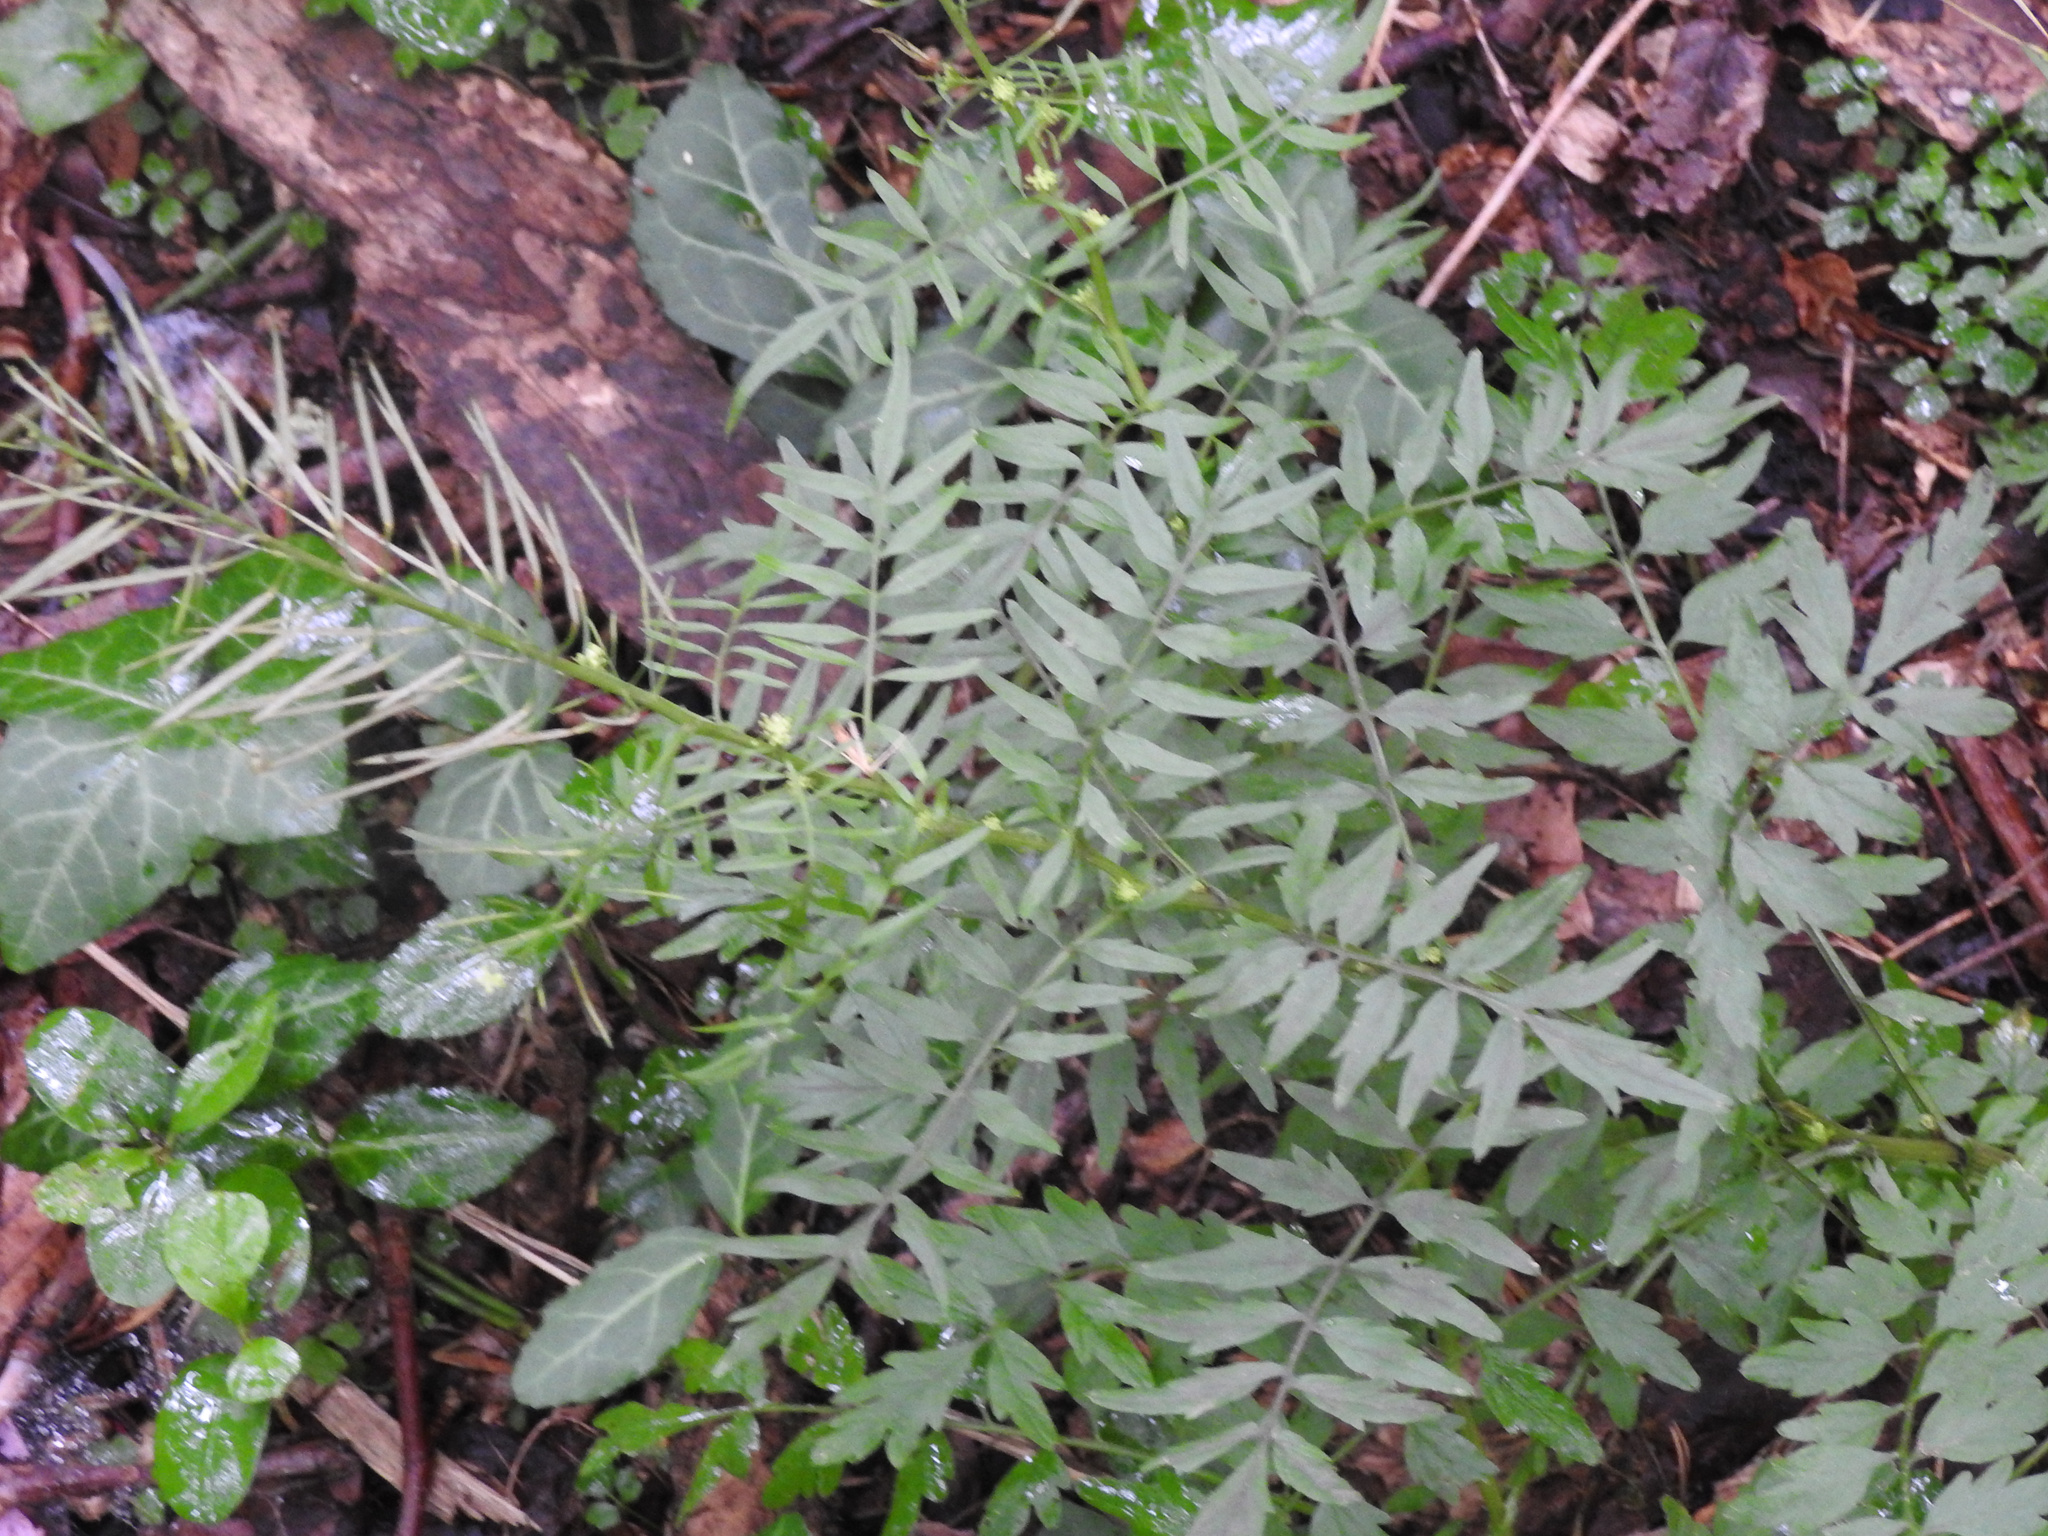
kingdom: Plantae
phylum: Tracheophyta
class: Magnoliopsida
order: Brassicales
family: Brassicaceae
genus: Cardamine
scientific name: Cardamine impatiens
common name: Narrow-leaved bitter-cress
